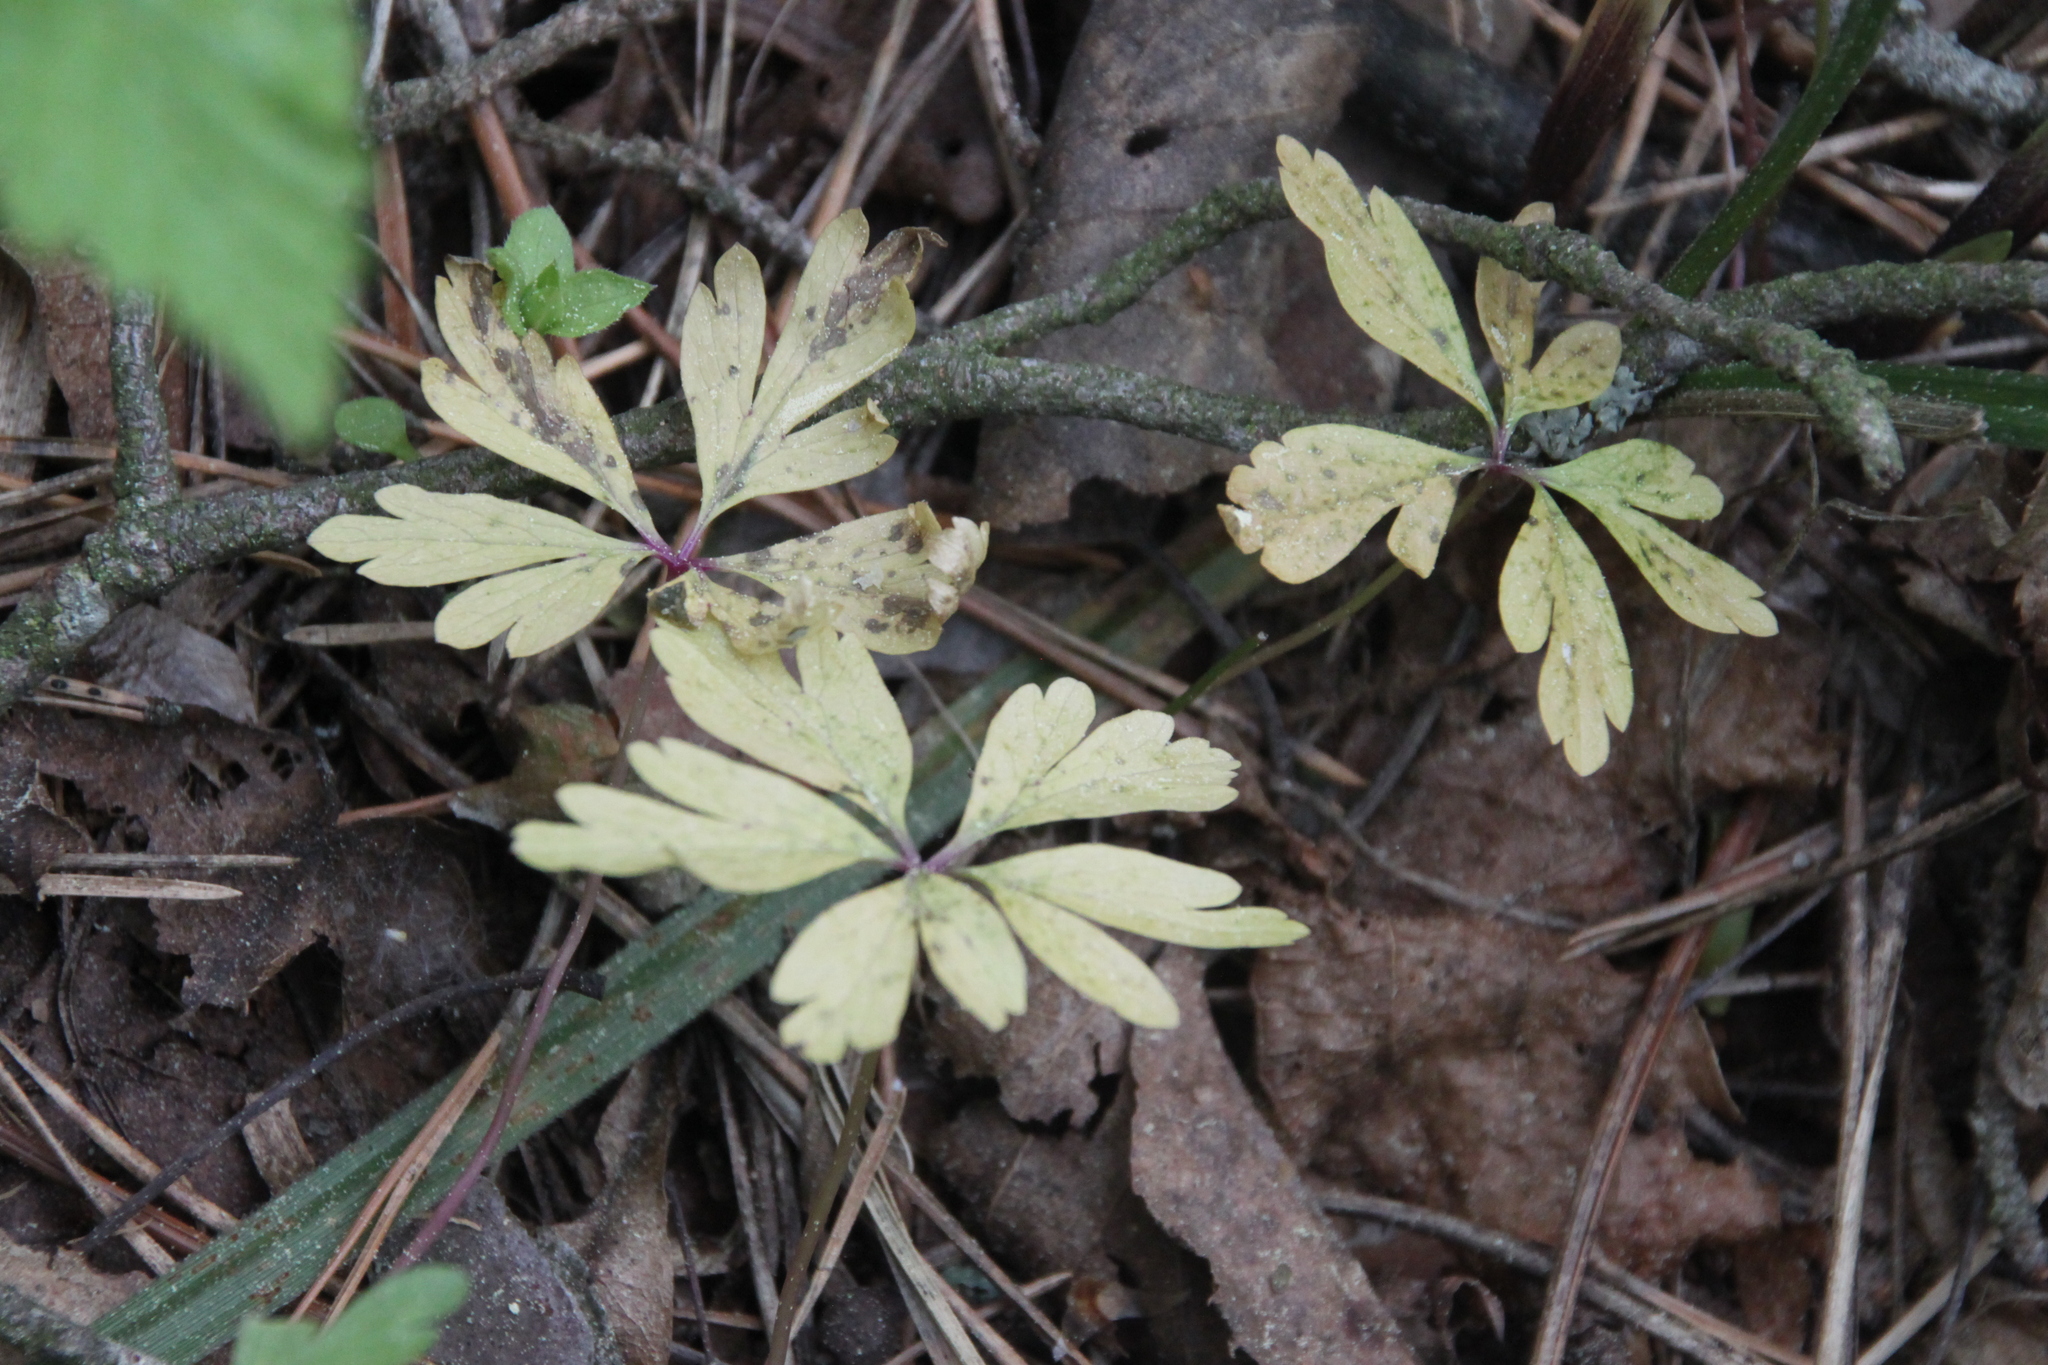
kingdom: Plantae
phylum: Tracheophyta
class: Magnoliopsida
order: Ranunculales
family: Ranunculaceae
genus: Anemone
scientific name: Anemone ranunculoides
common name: Yellow anemone
